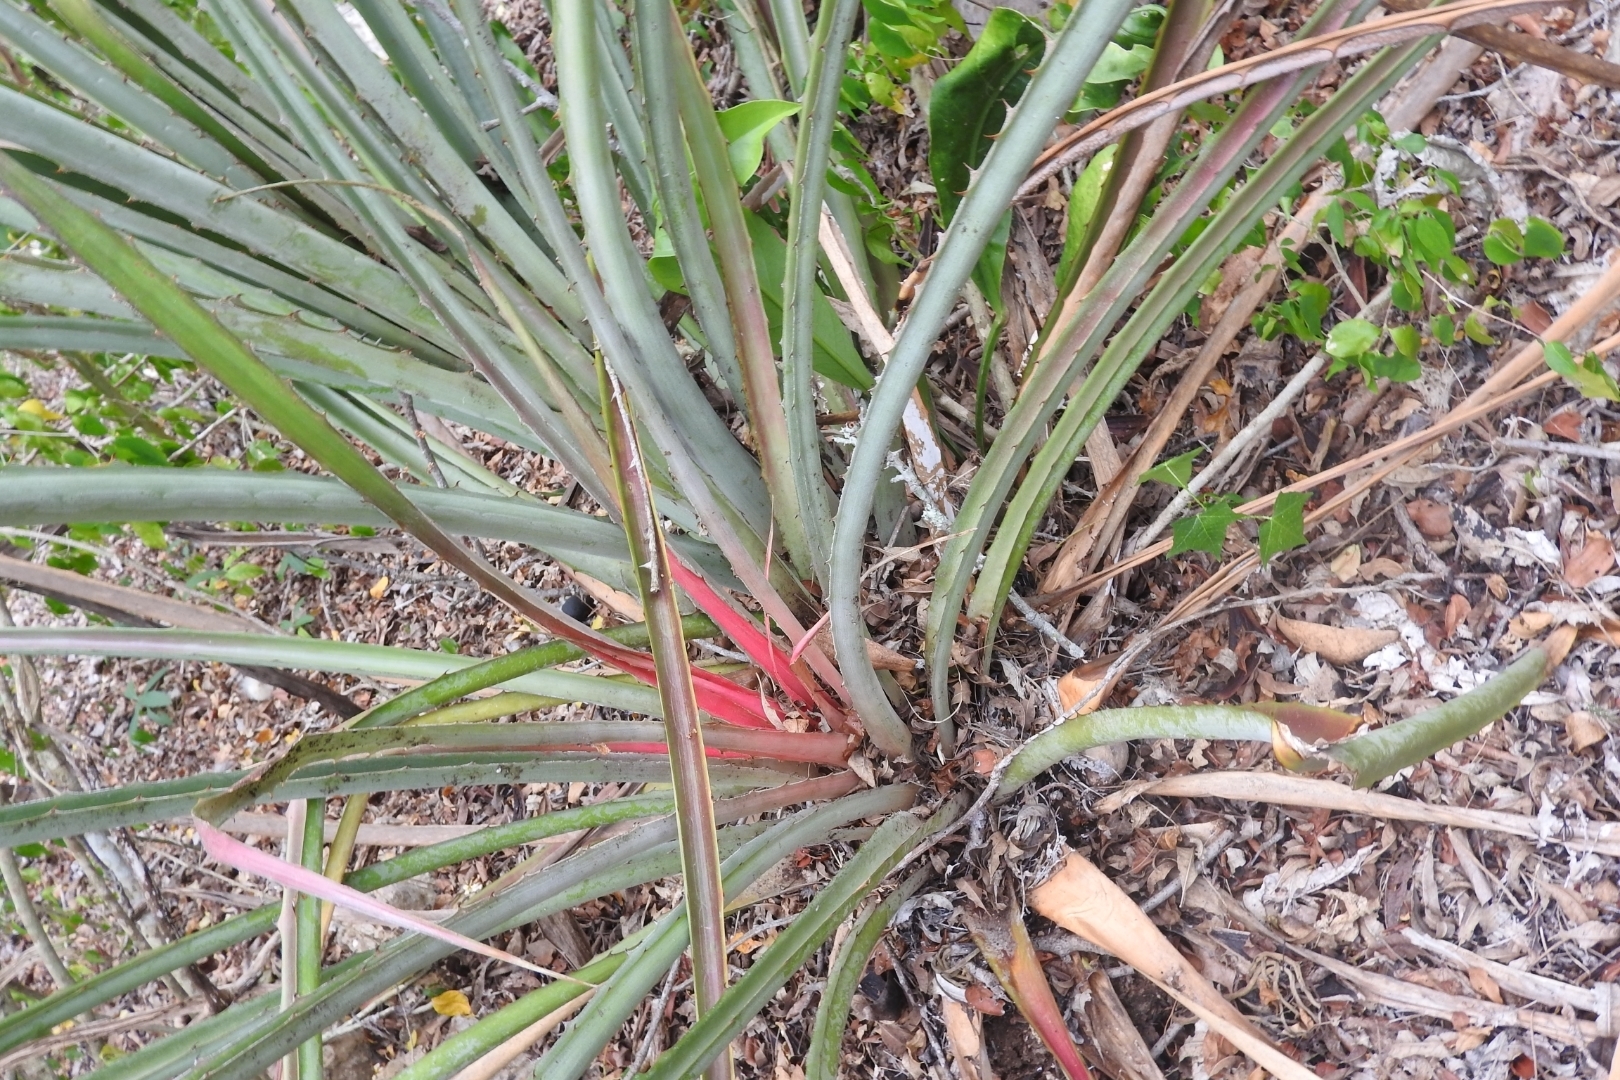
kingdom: Plantae
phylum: Tracheophyta
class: Liliopsida
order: Poales
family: Bromeliaceae
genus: Bromelia
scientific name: Bromelia pinguin
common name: Pinguin
